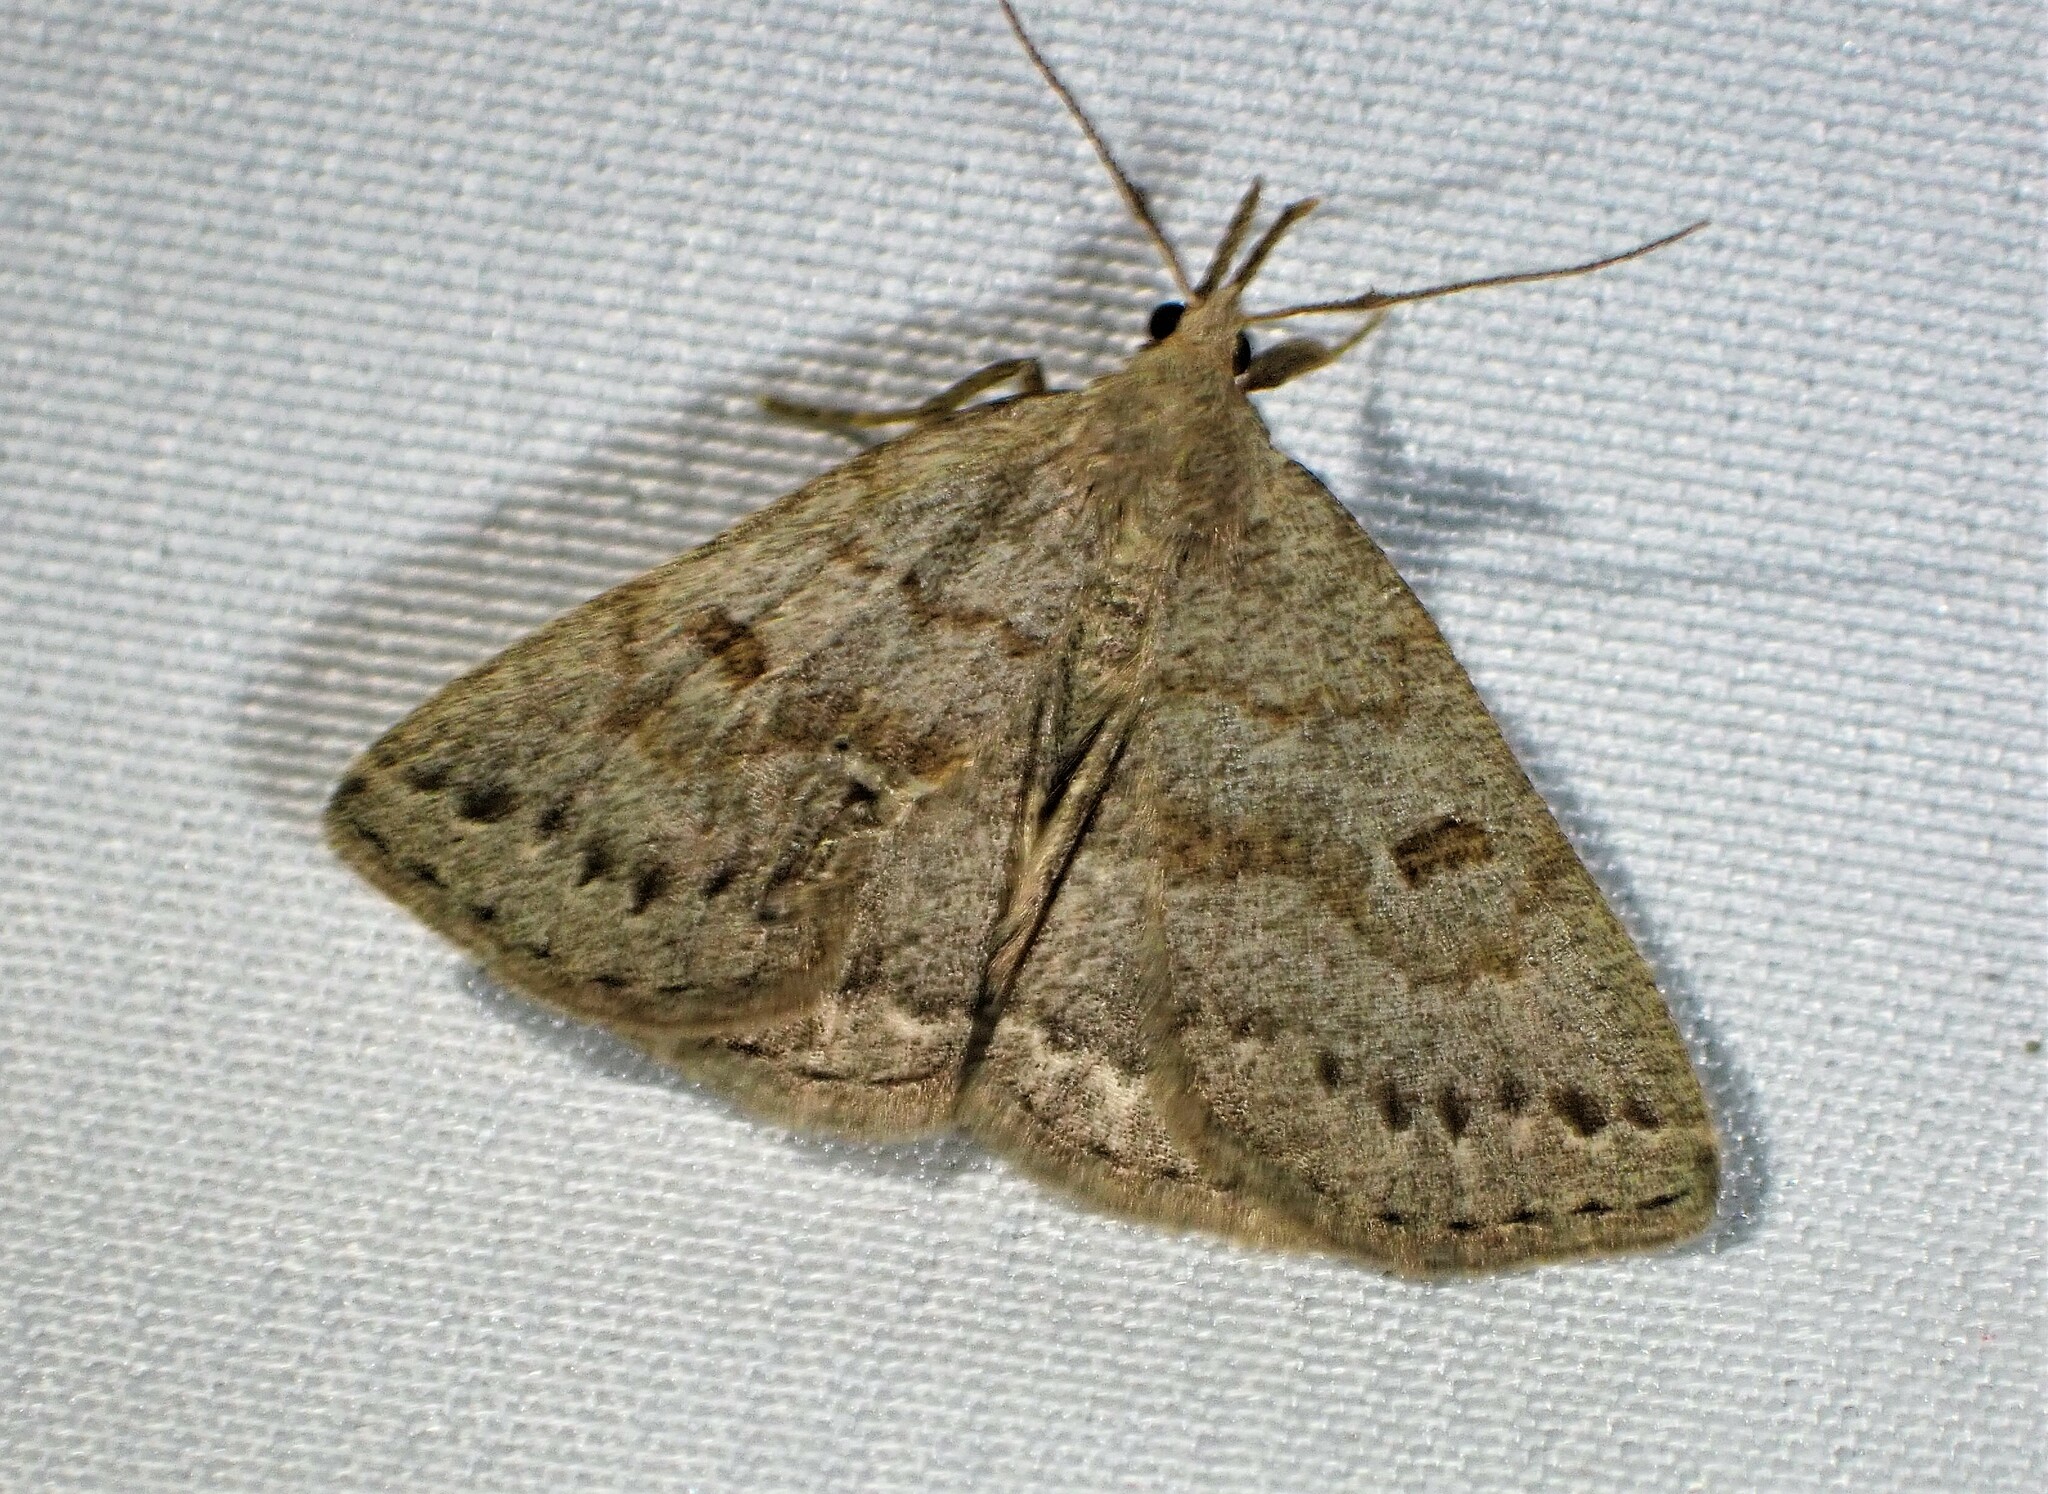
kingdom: Animalia
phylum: Arthropoda
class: Insecta
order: Lepidoptera
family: Erebidae
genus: Macrochilo
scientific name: Macrochilo morbidalis
